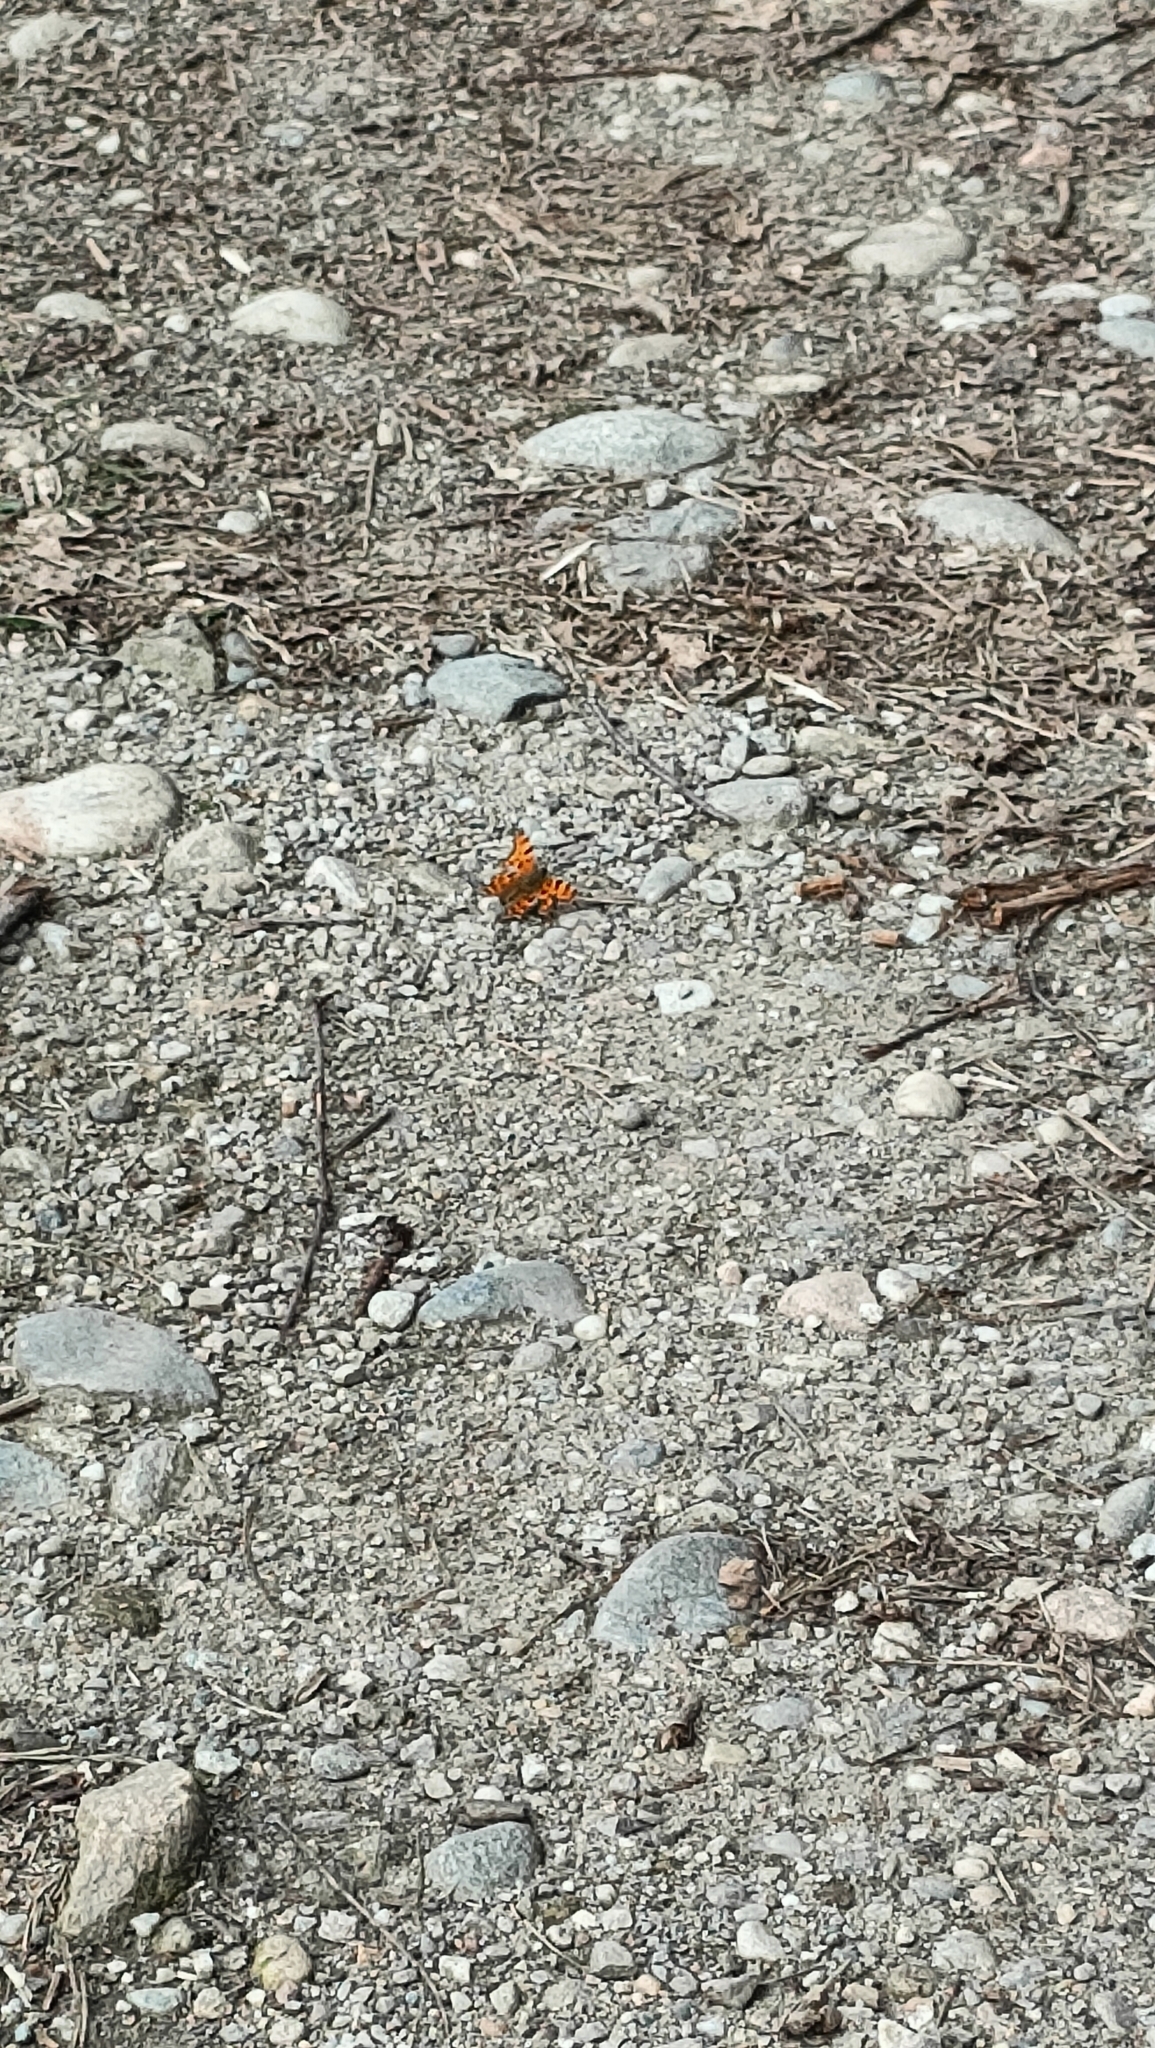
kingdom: Animalia
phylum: Arthropoda
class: Insecta
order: Lepidoptera
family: Nymphalidae
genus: Polygonia
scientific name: Polygonia c-album
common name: Comma
